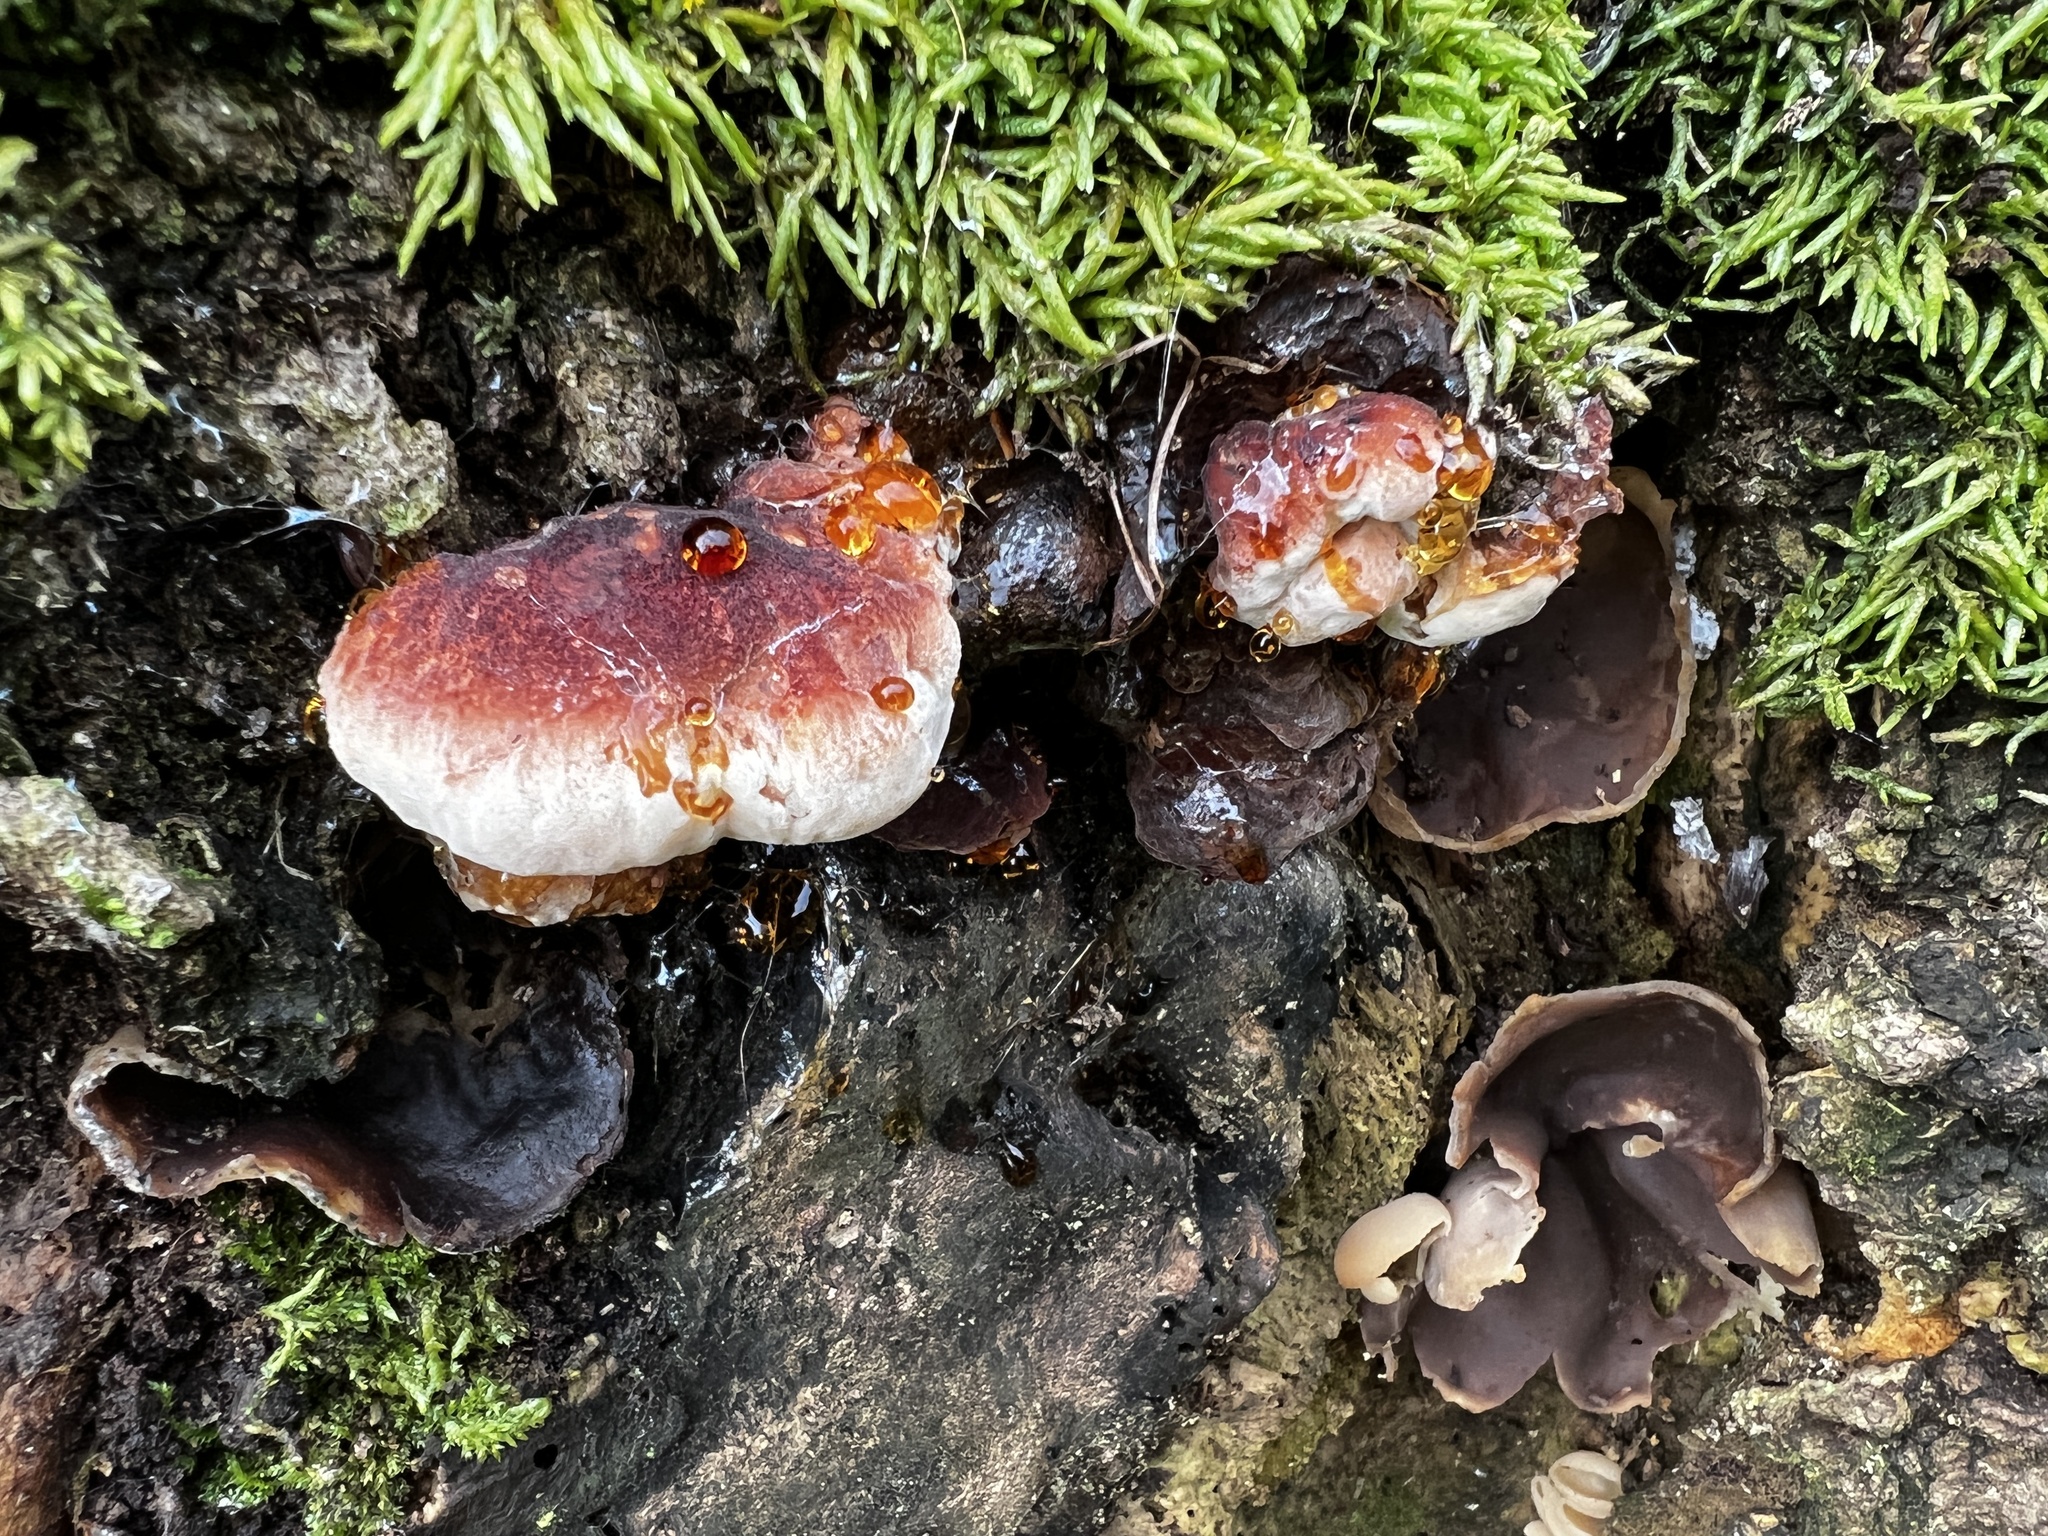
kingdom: Fungi
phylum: Basidiomycota
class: Agaricomycetes
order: Polyporales
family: Ischnodermataceae
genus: Ischnoderma
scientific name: Ischnoderma resinosum
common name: Resinous polypore
